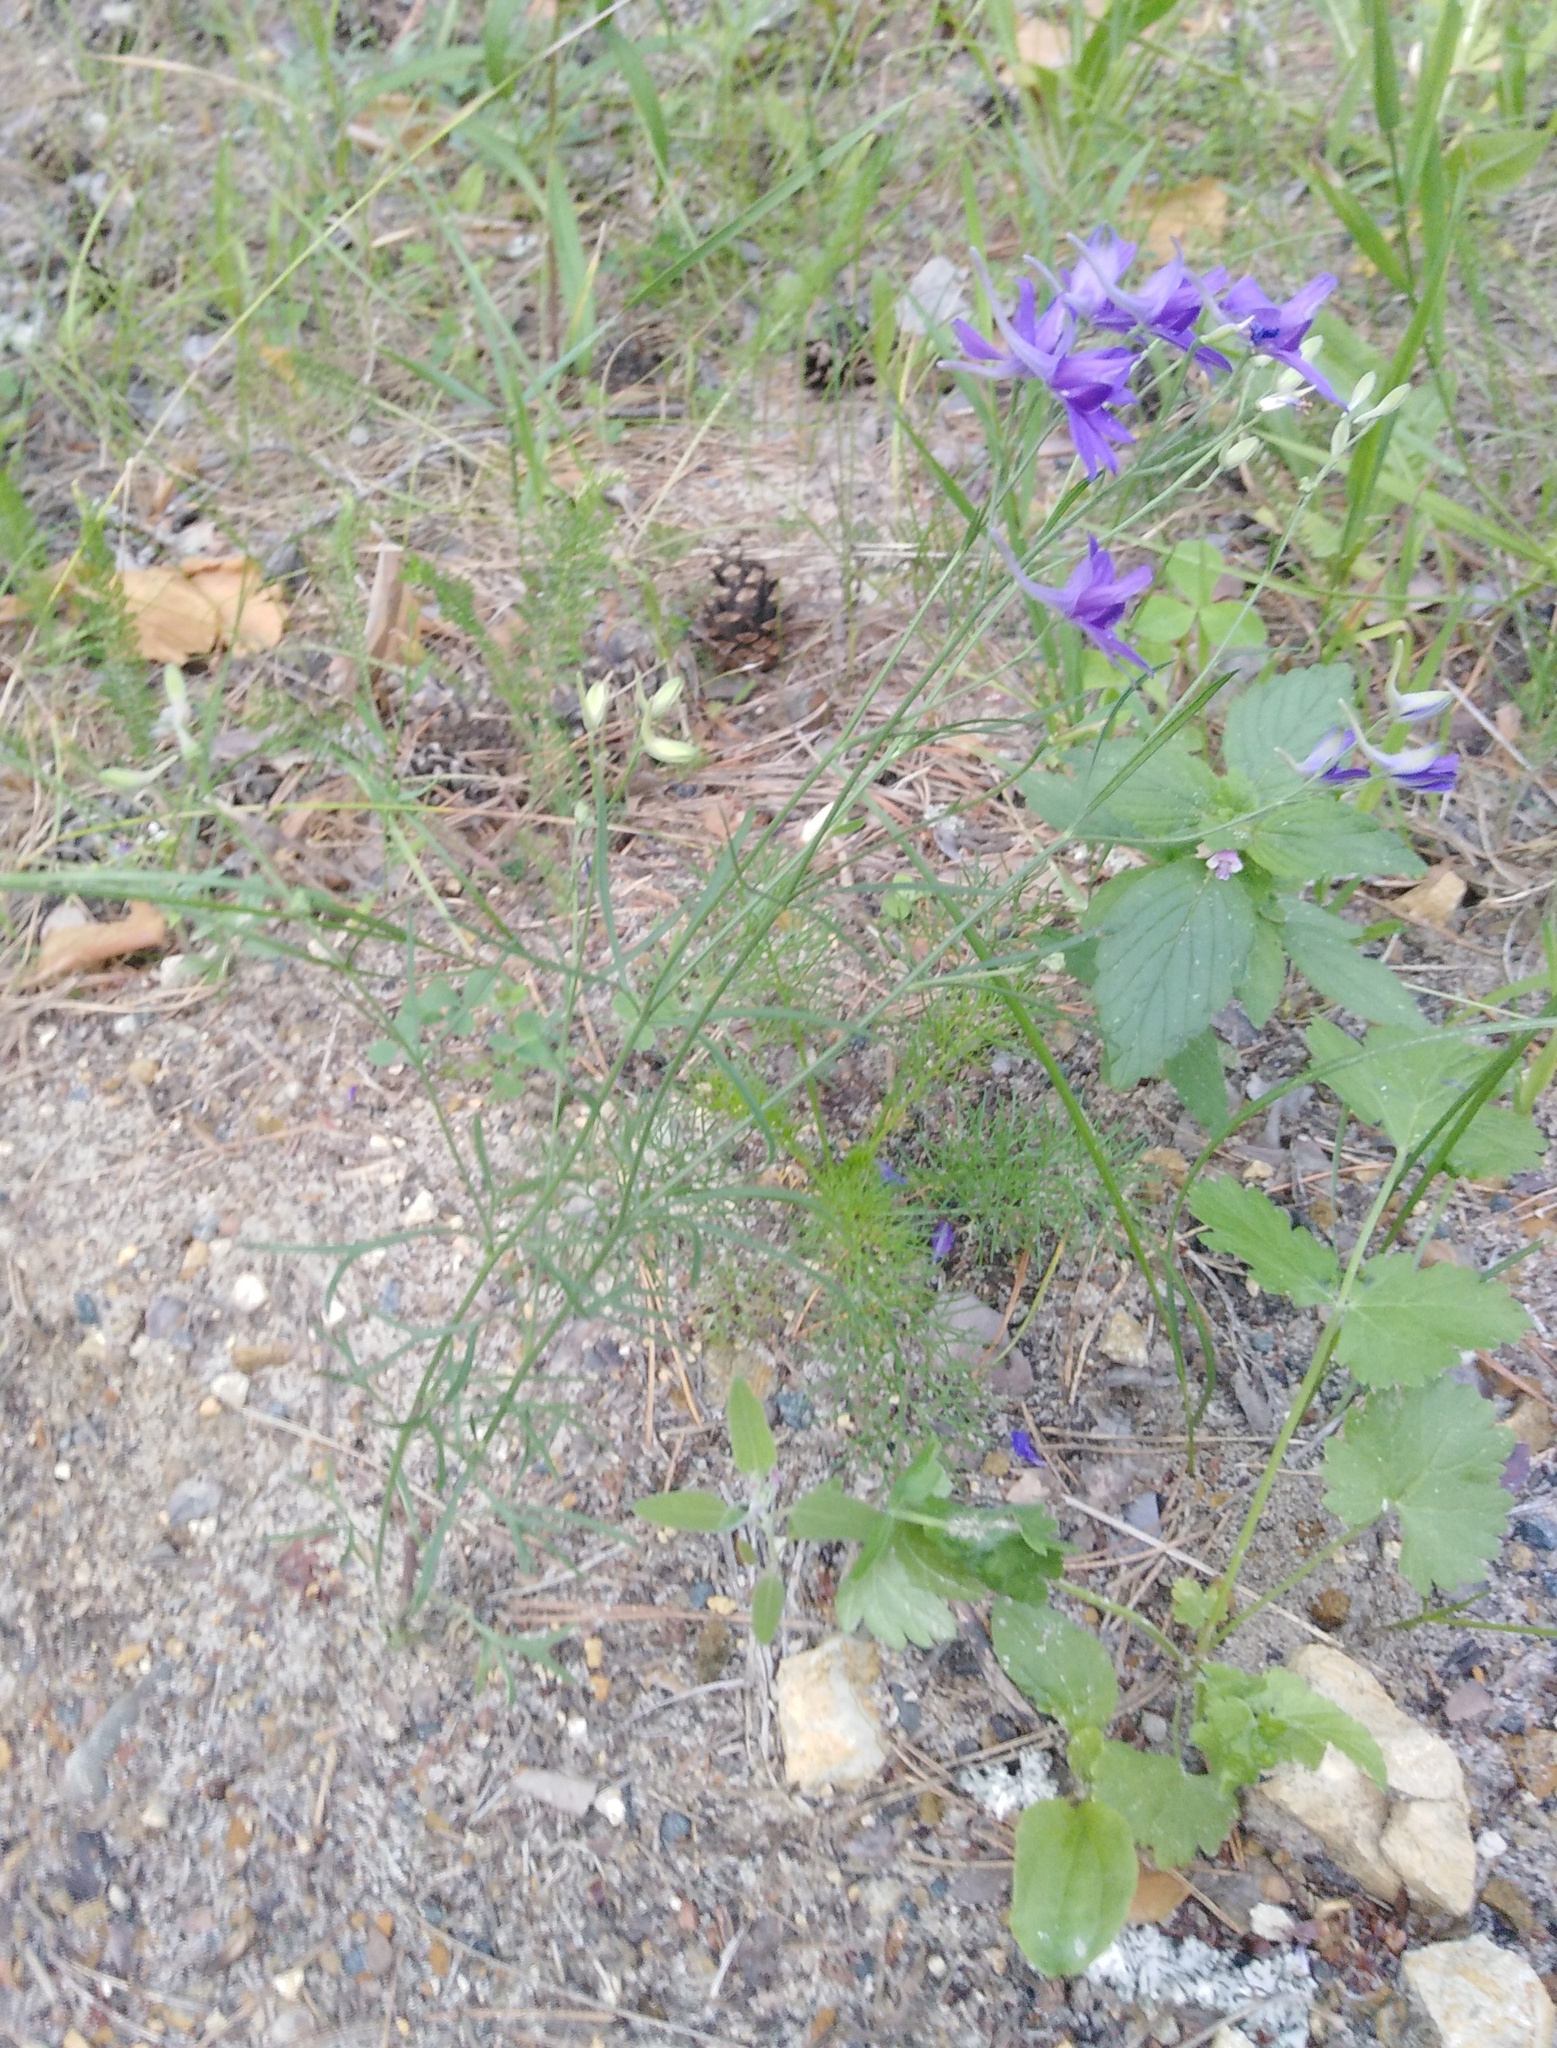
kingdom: Plantae
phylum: Tracheophyta
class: Magnoliopsida
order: Ranunculales
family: Ranunculaceae
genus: Delphinium
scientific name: Delphinium consolida
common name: Branching larkspur
